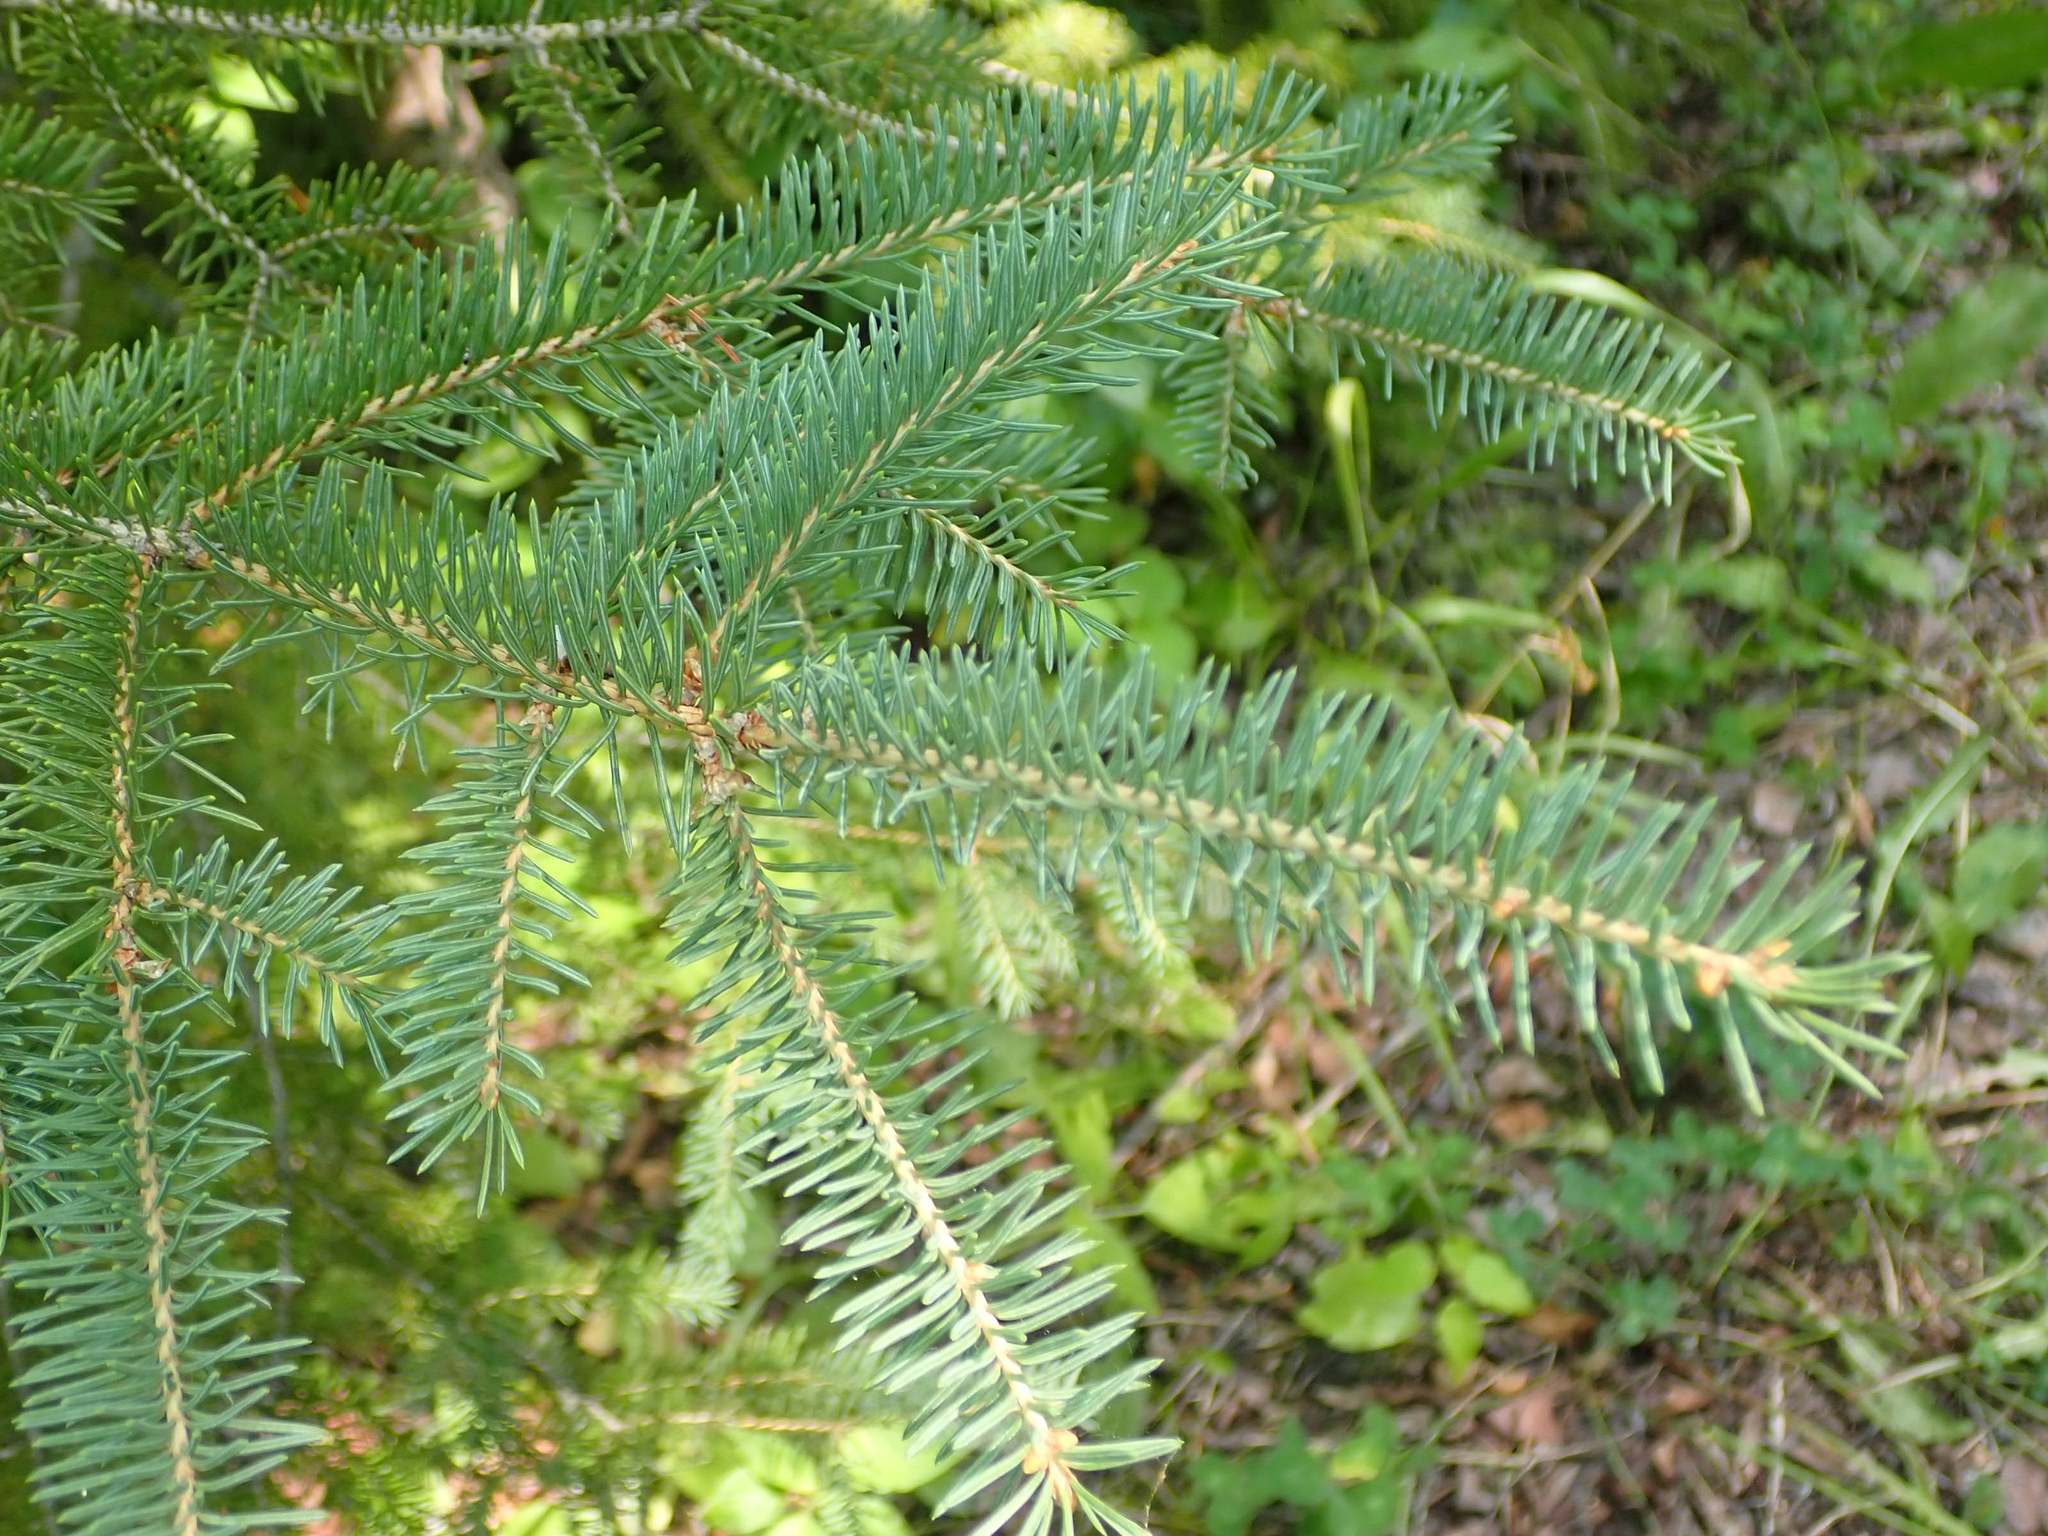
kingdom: Plantae
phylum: Tracheophyta
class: Pinopsida
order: Pinales
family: Pinaceae
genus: Picea
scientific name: Picea glauca
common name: White spruce
